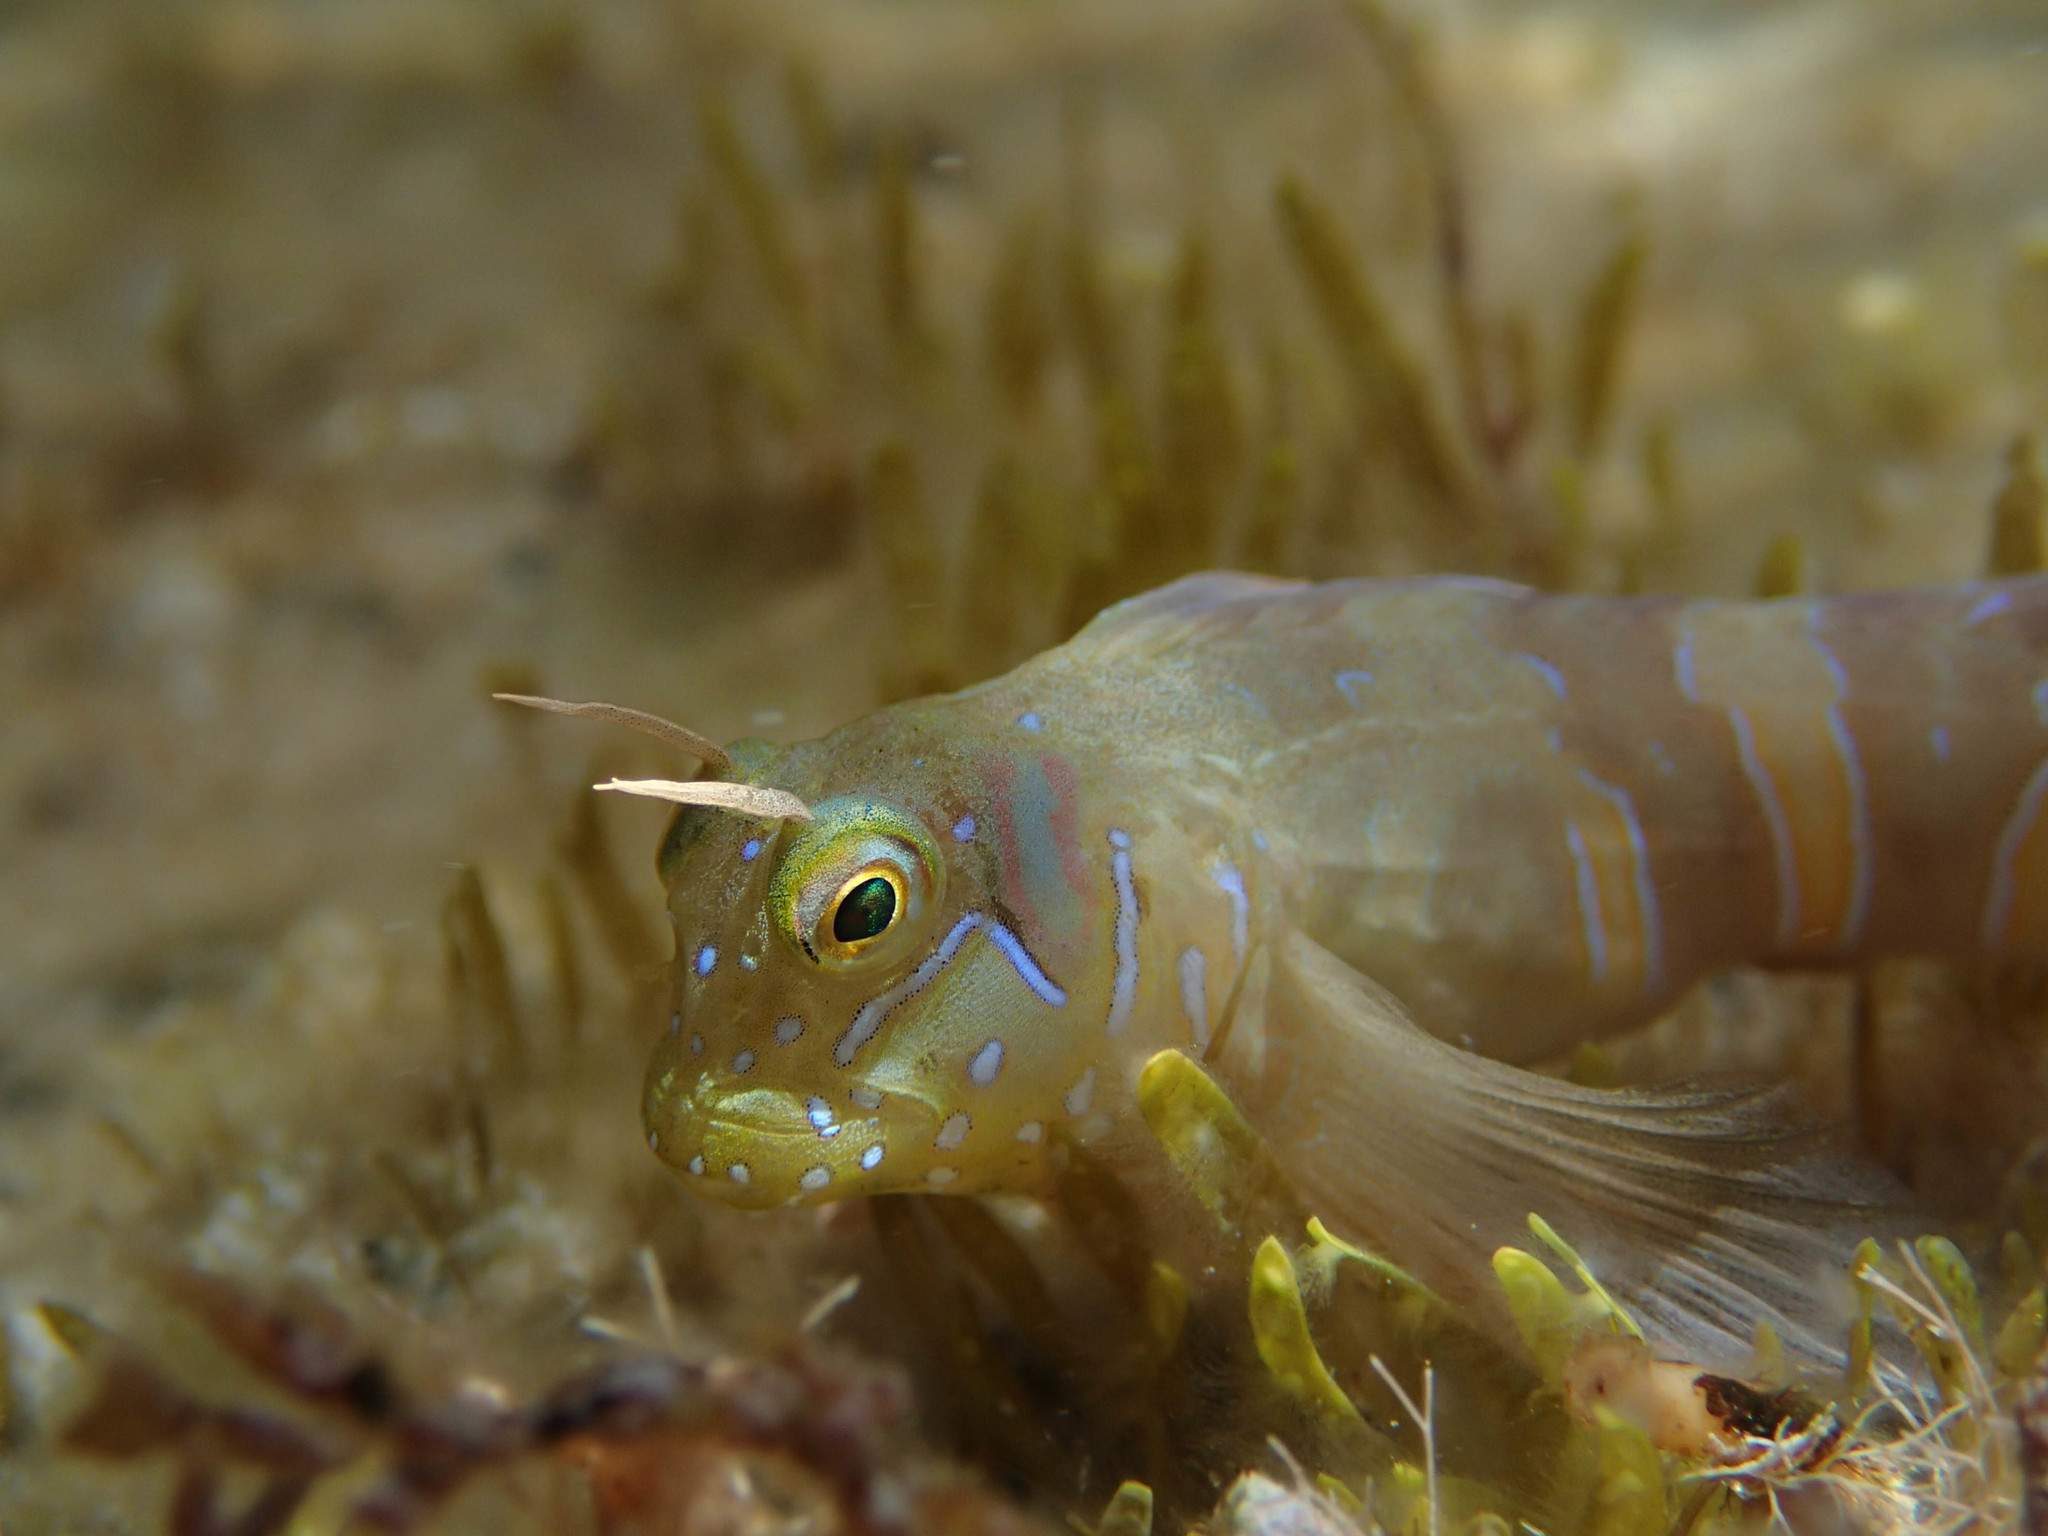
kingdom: Animalia
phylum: Chordata
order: Perciformes
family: Blenniidae
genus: Aidablennius
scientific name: Aidablennius sphynx
